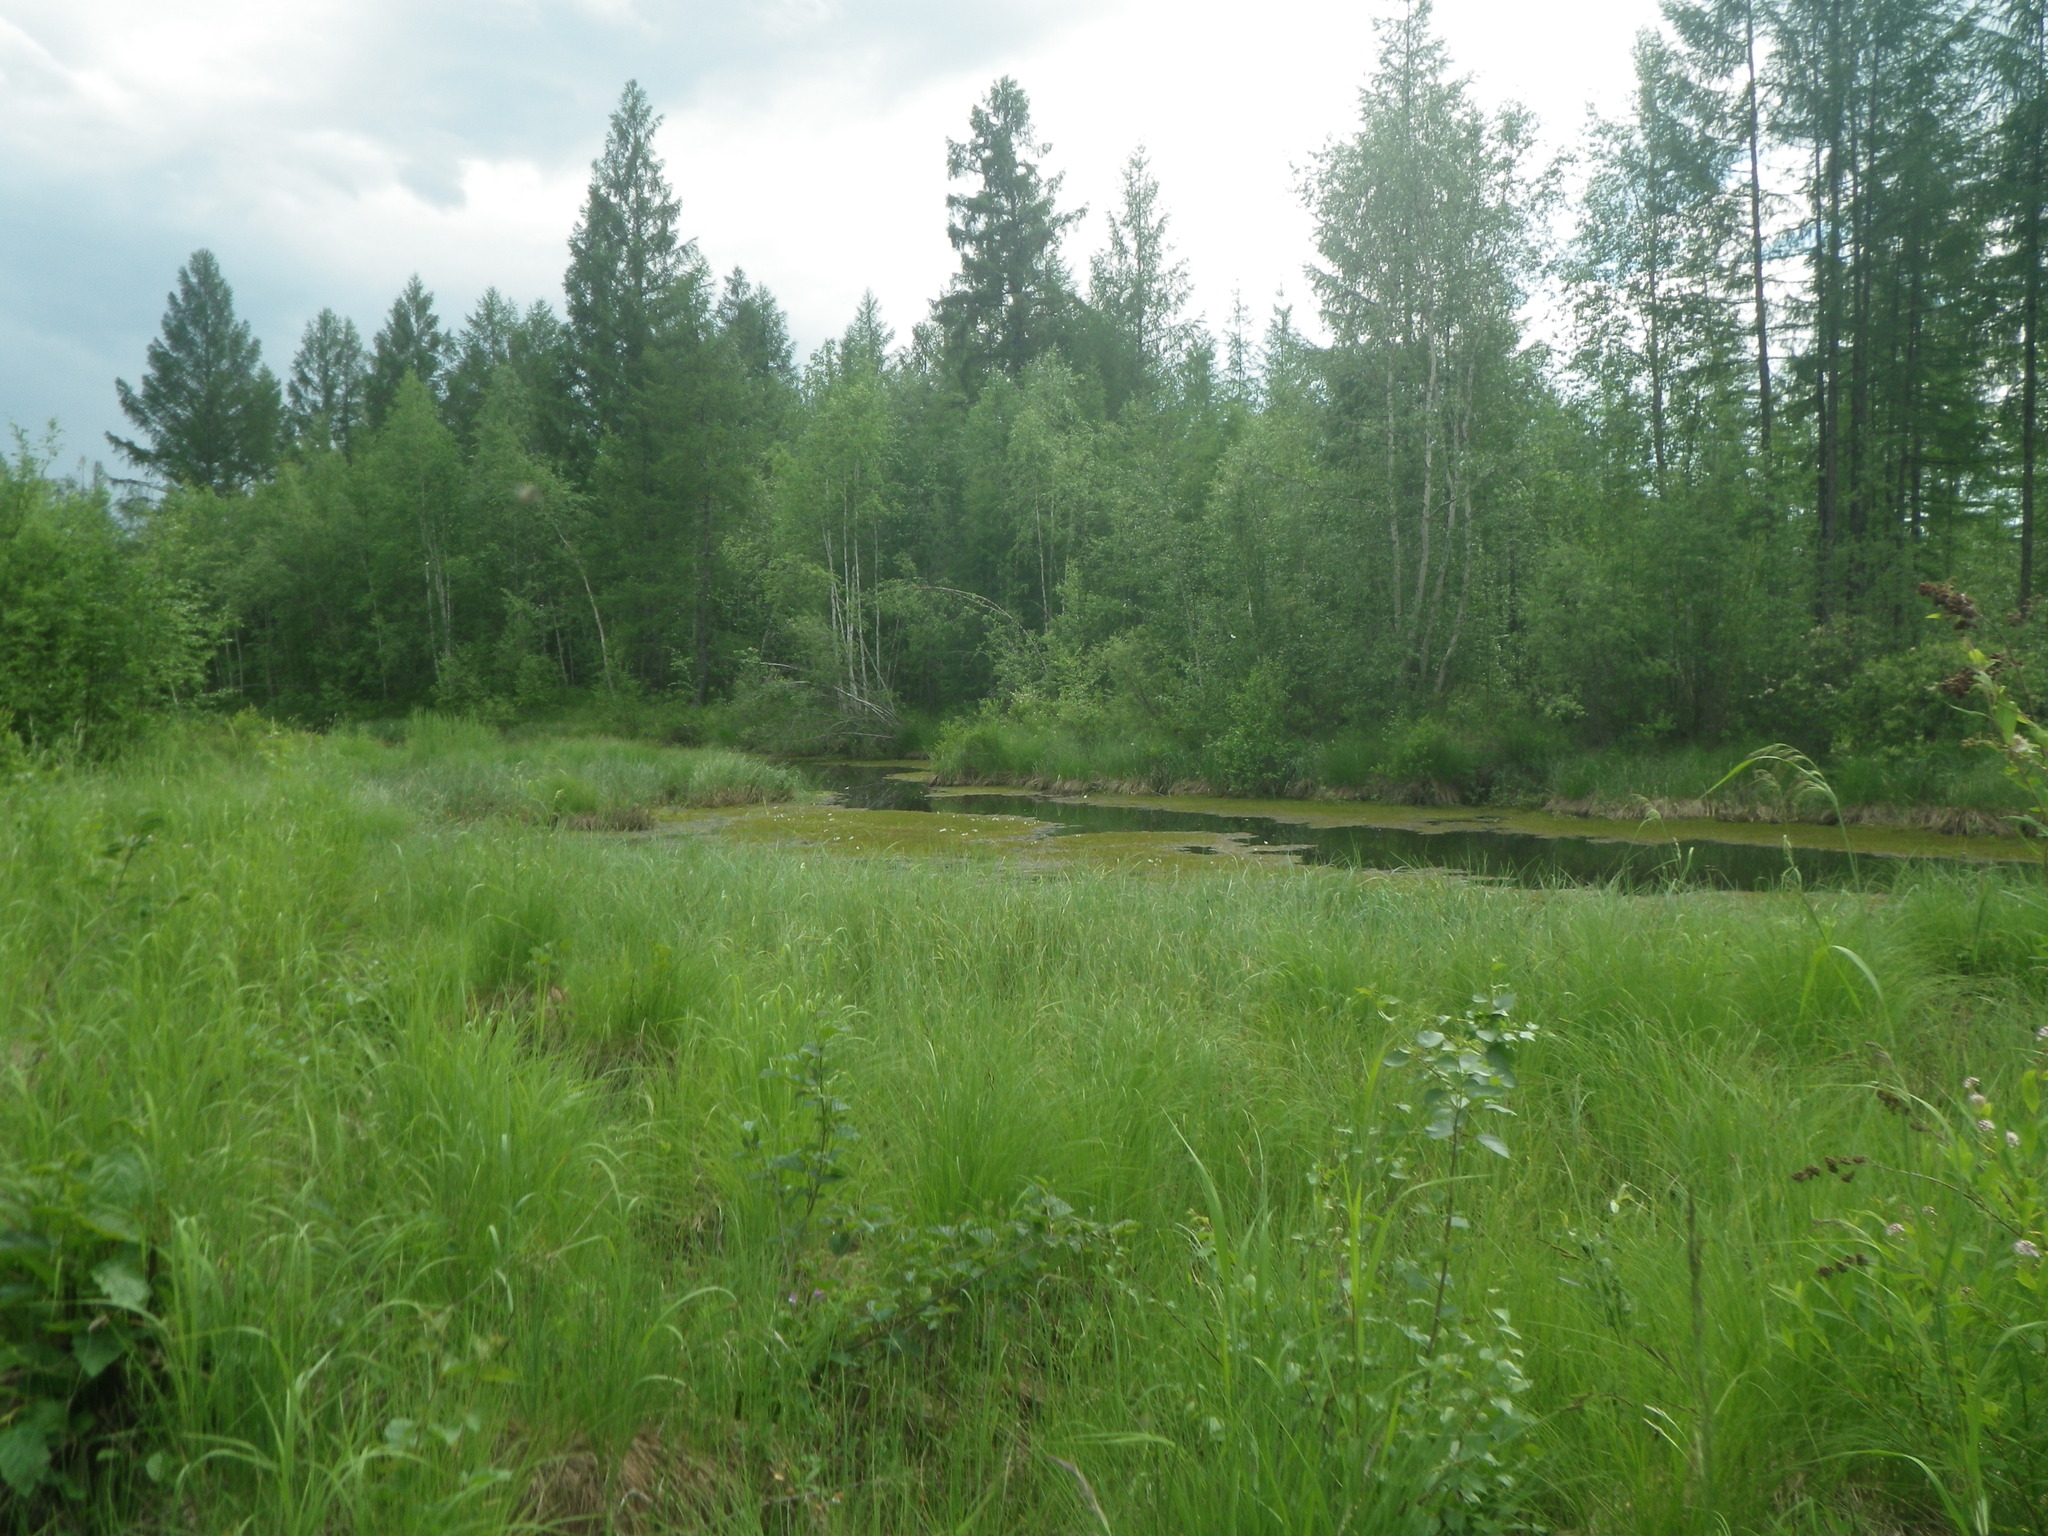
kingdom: Plantae
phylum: Tracheophyta
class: Magnoliopsida
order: Ericales
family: Primulaceae
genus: Lysimachia
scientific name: Lysimachia thyrsiflora
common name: Tufted loosestrife
